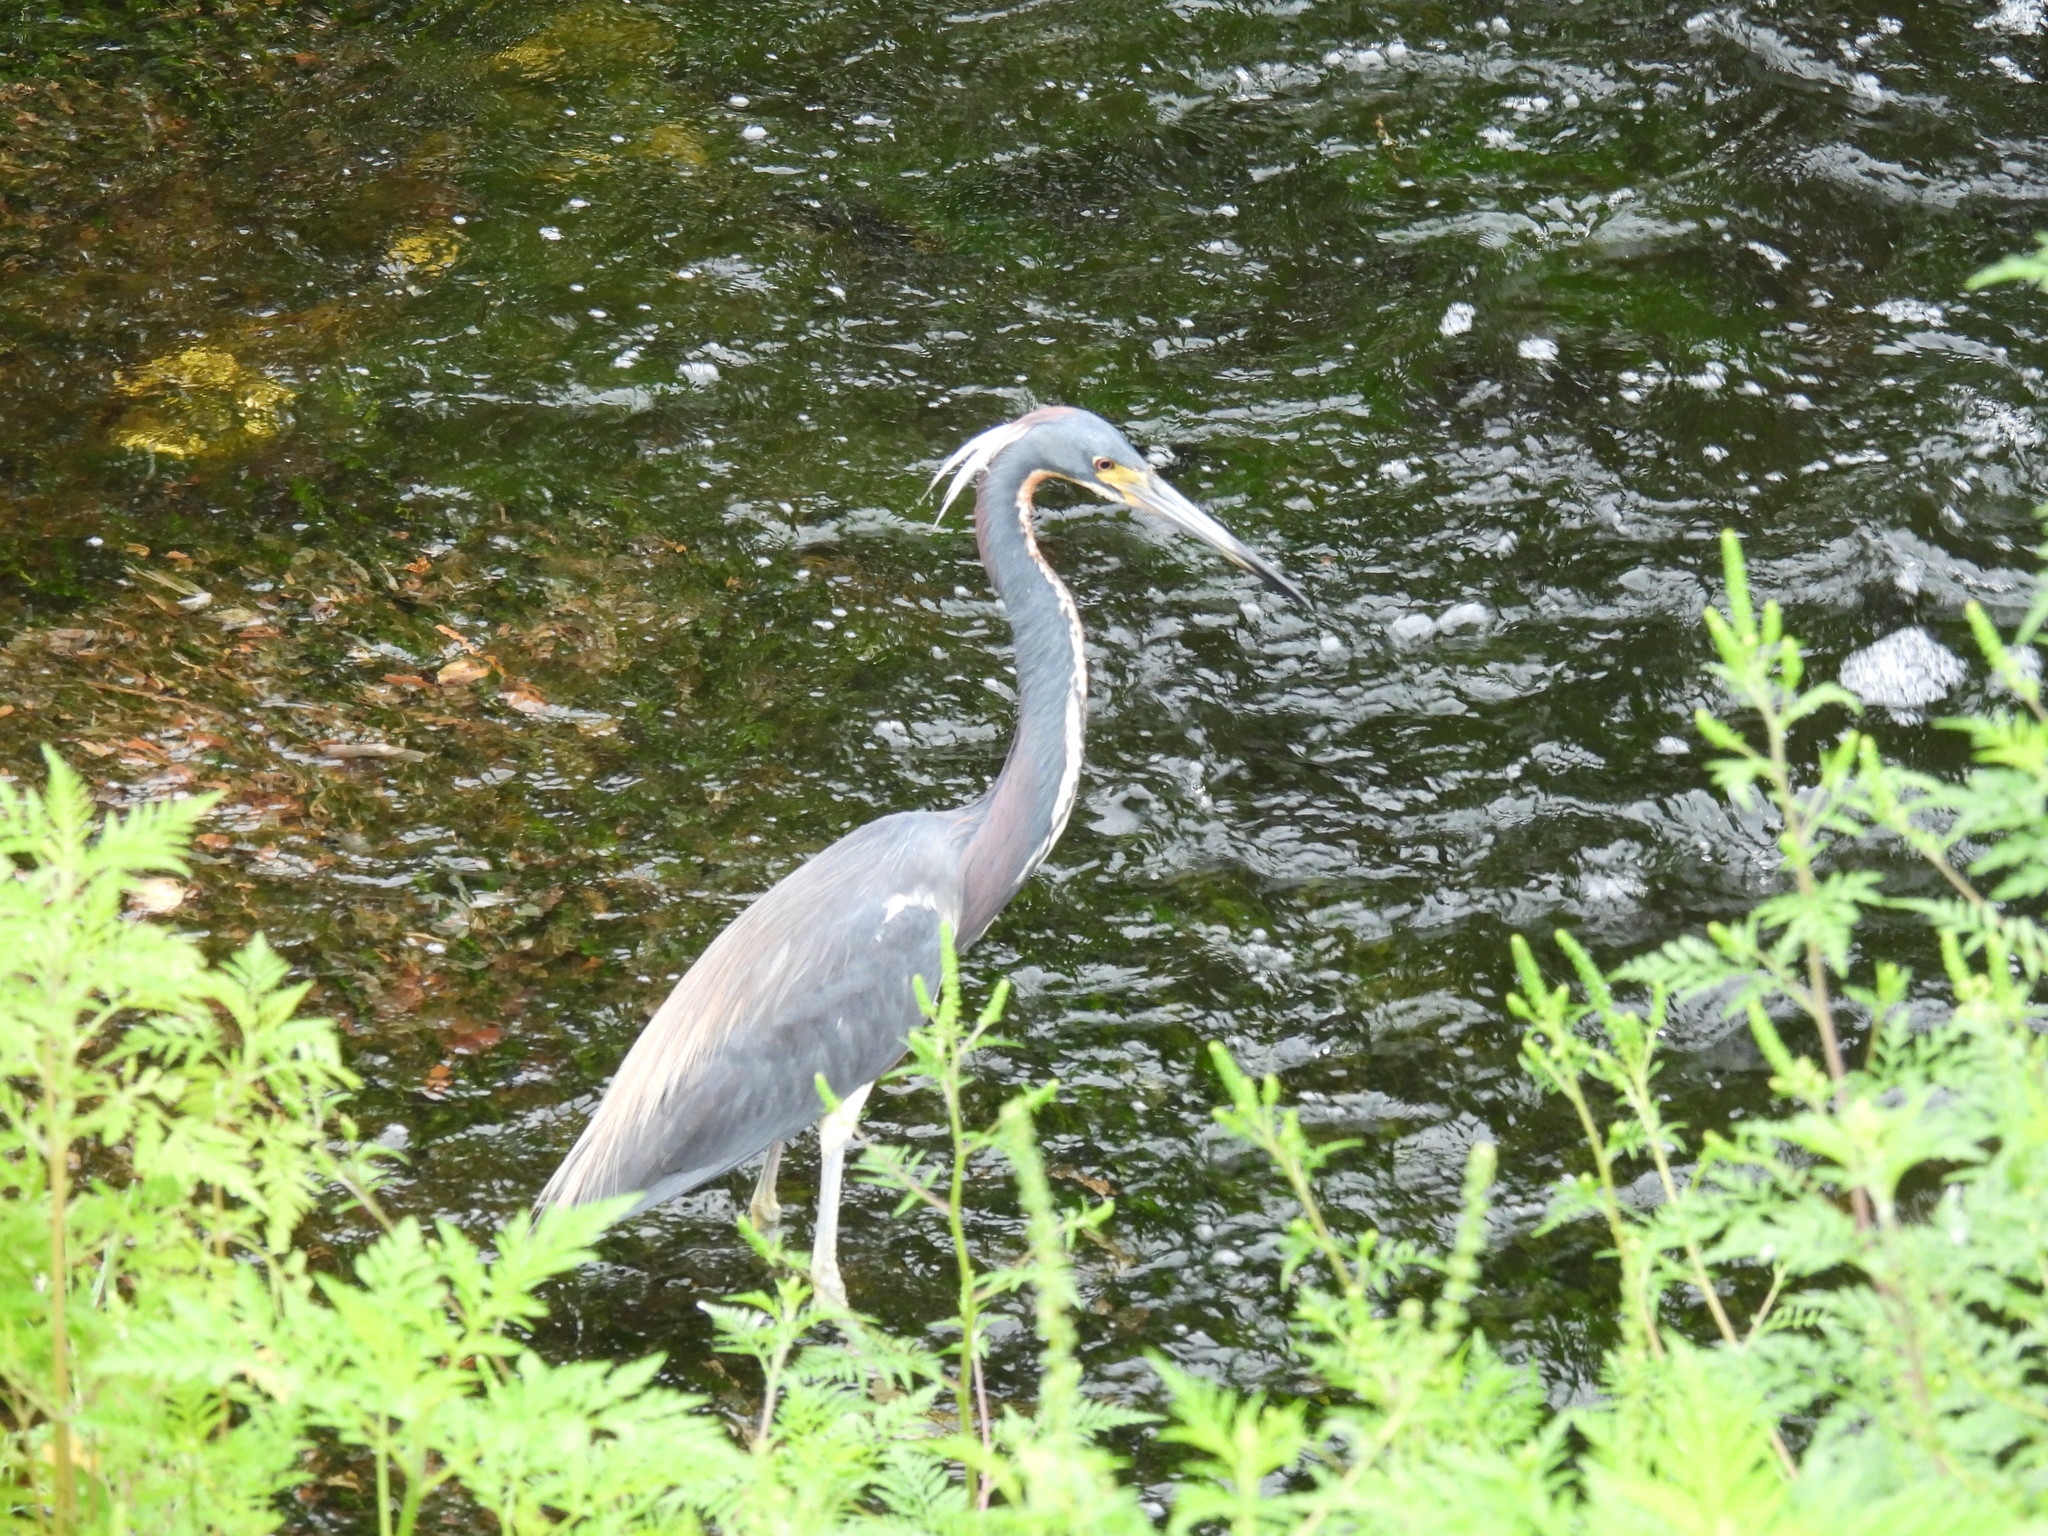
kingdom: Animalia
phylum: Chordata
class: Aves
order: Pelecaniformes
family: Ardeidae
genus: Egretta
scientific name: Egretta tricolor
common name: Tricolored heron
